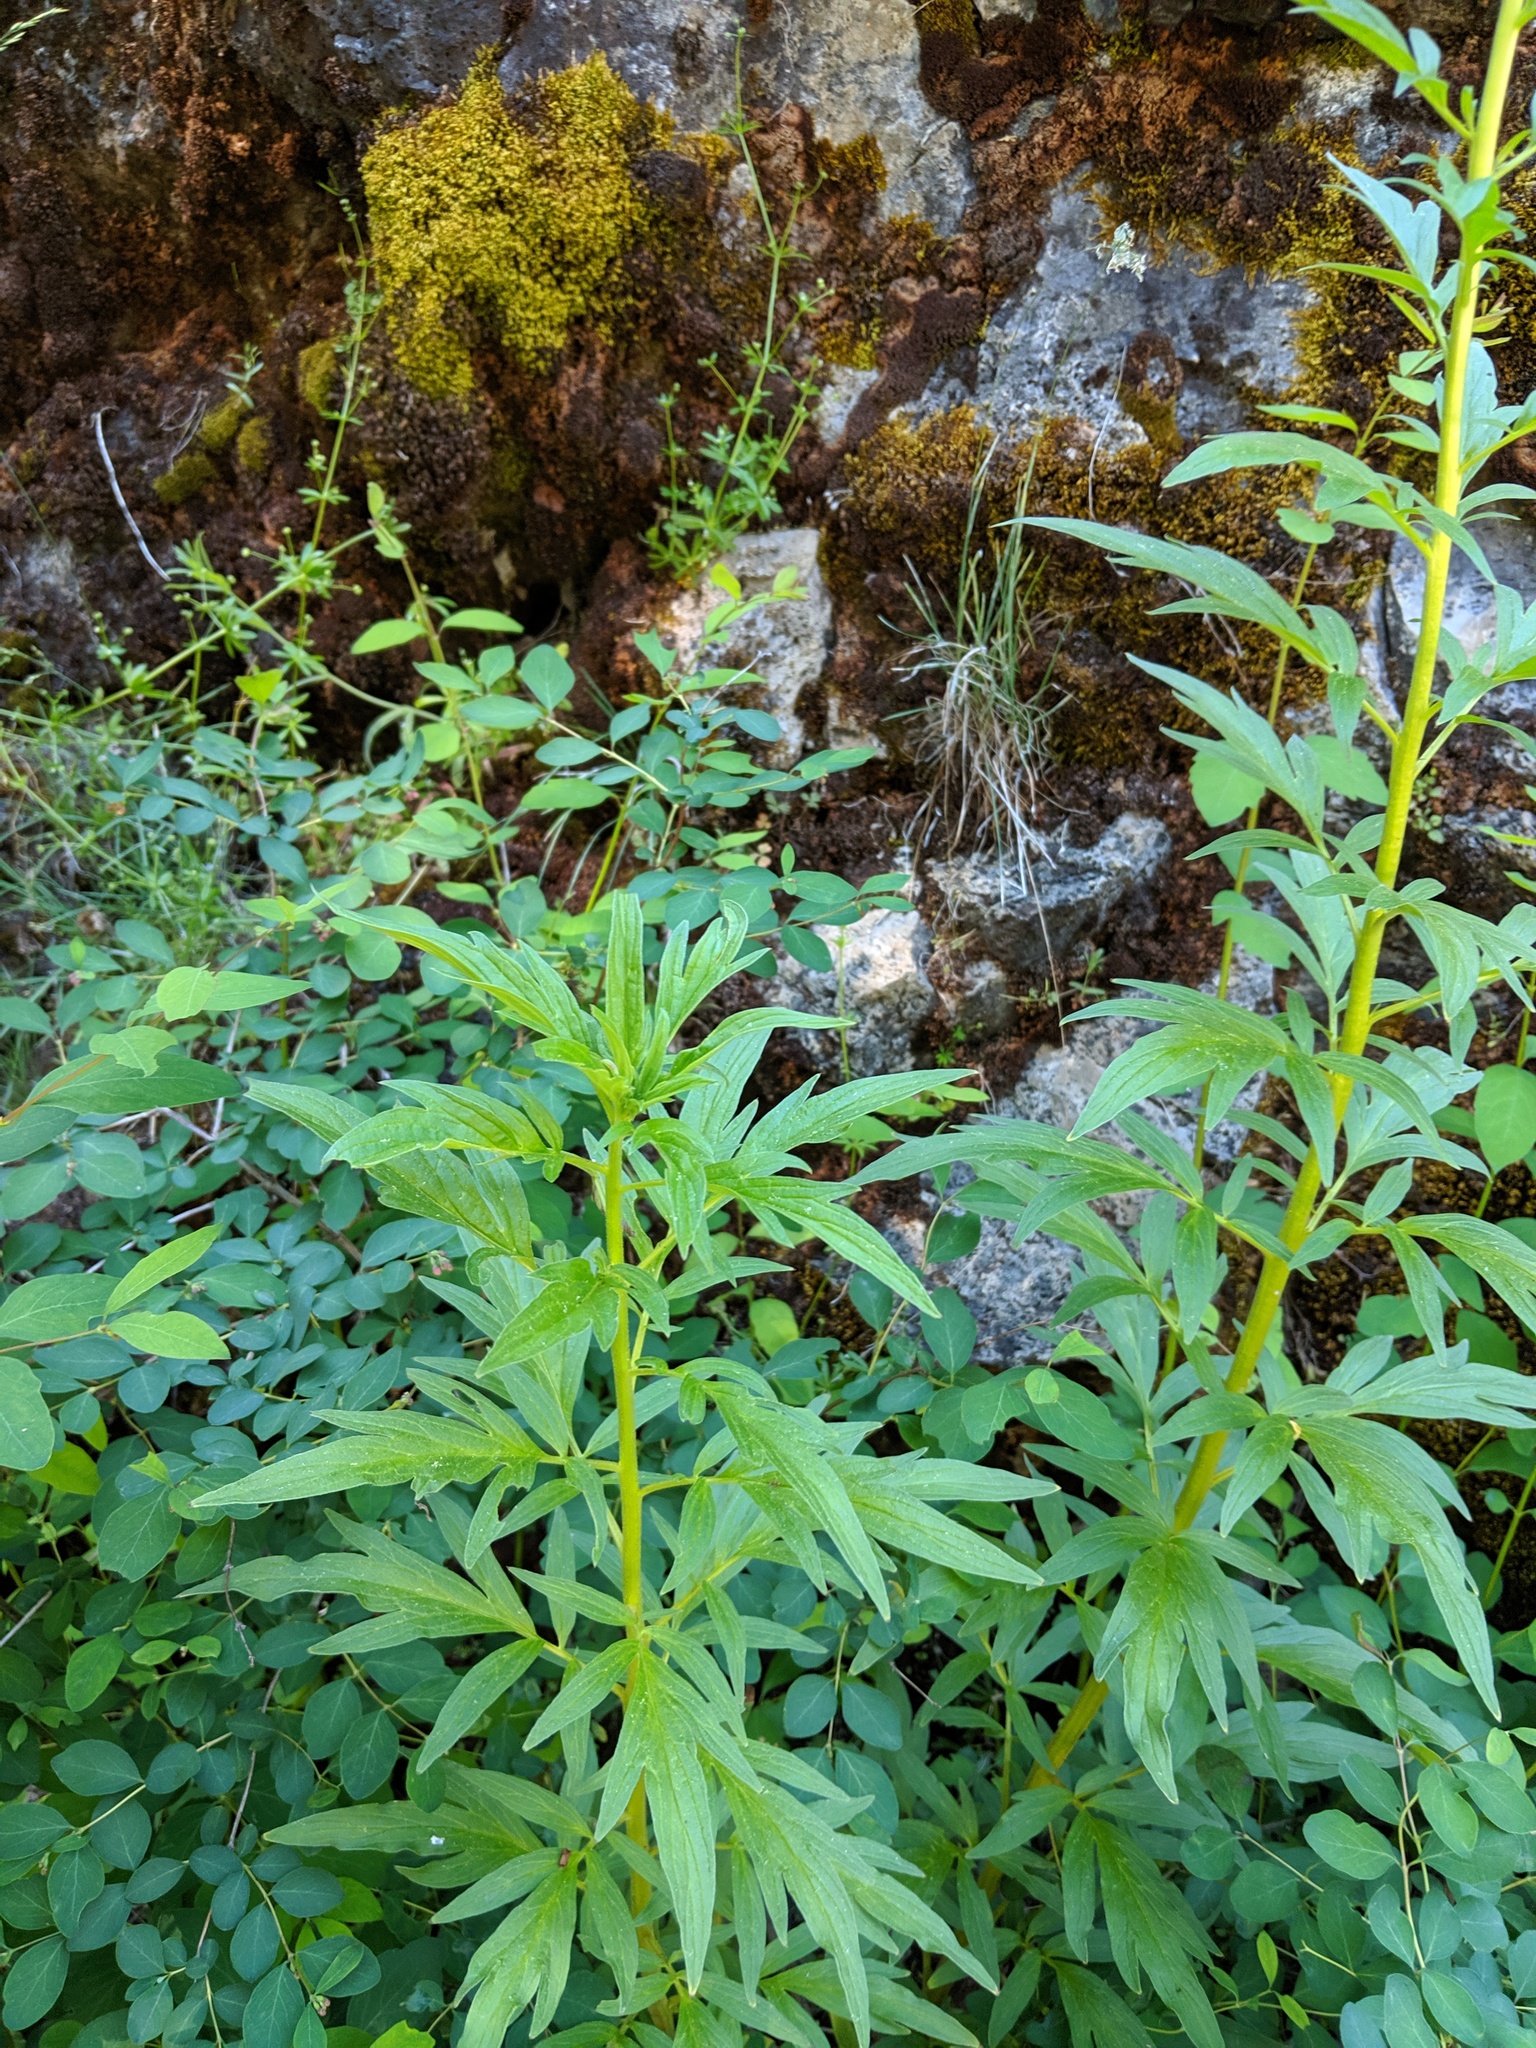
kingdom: Plantae
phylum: Tracheophyta
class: Magnoliopsida
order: Boraginales
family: Hydrophyllaceae
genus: Phacelia
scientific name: Phacelia procera
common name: Tall phacelia
